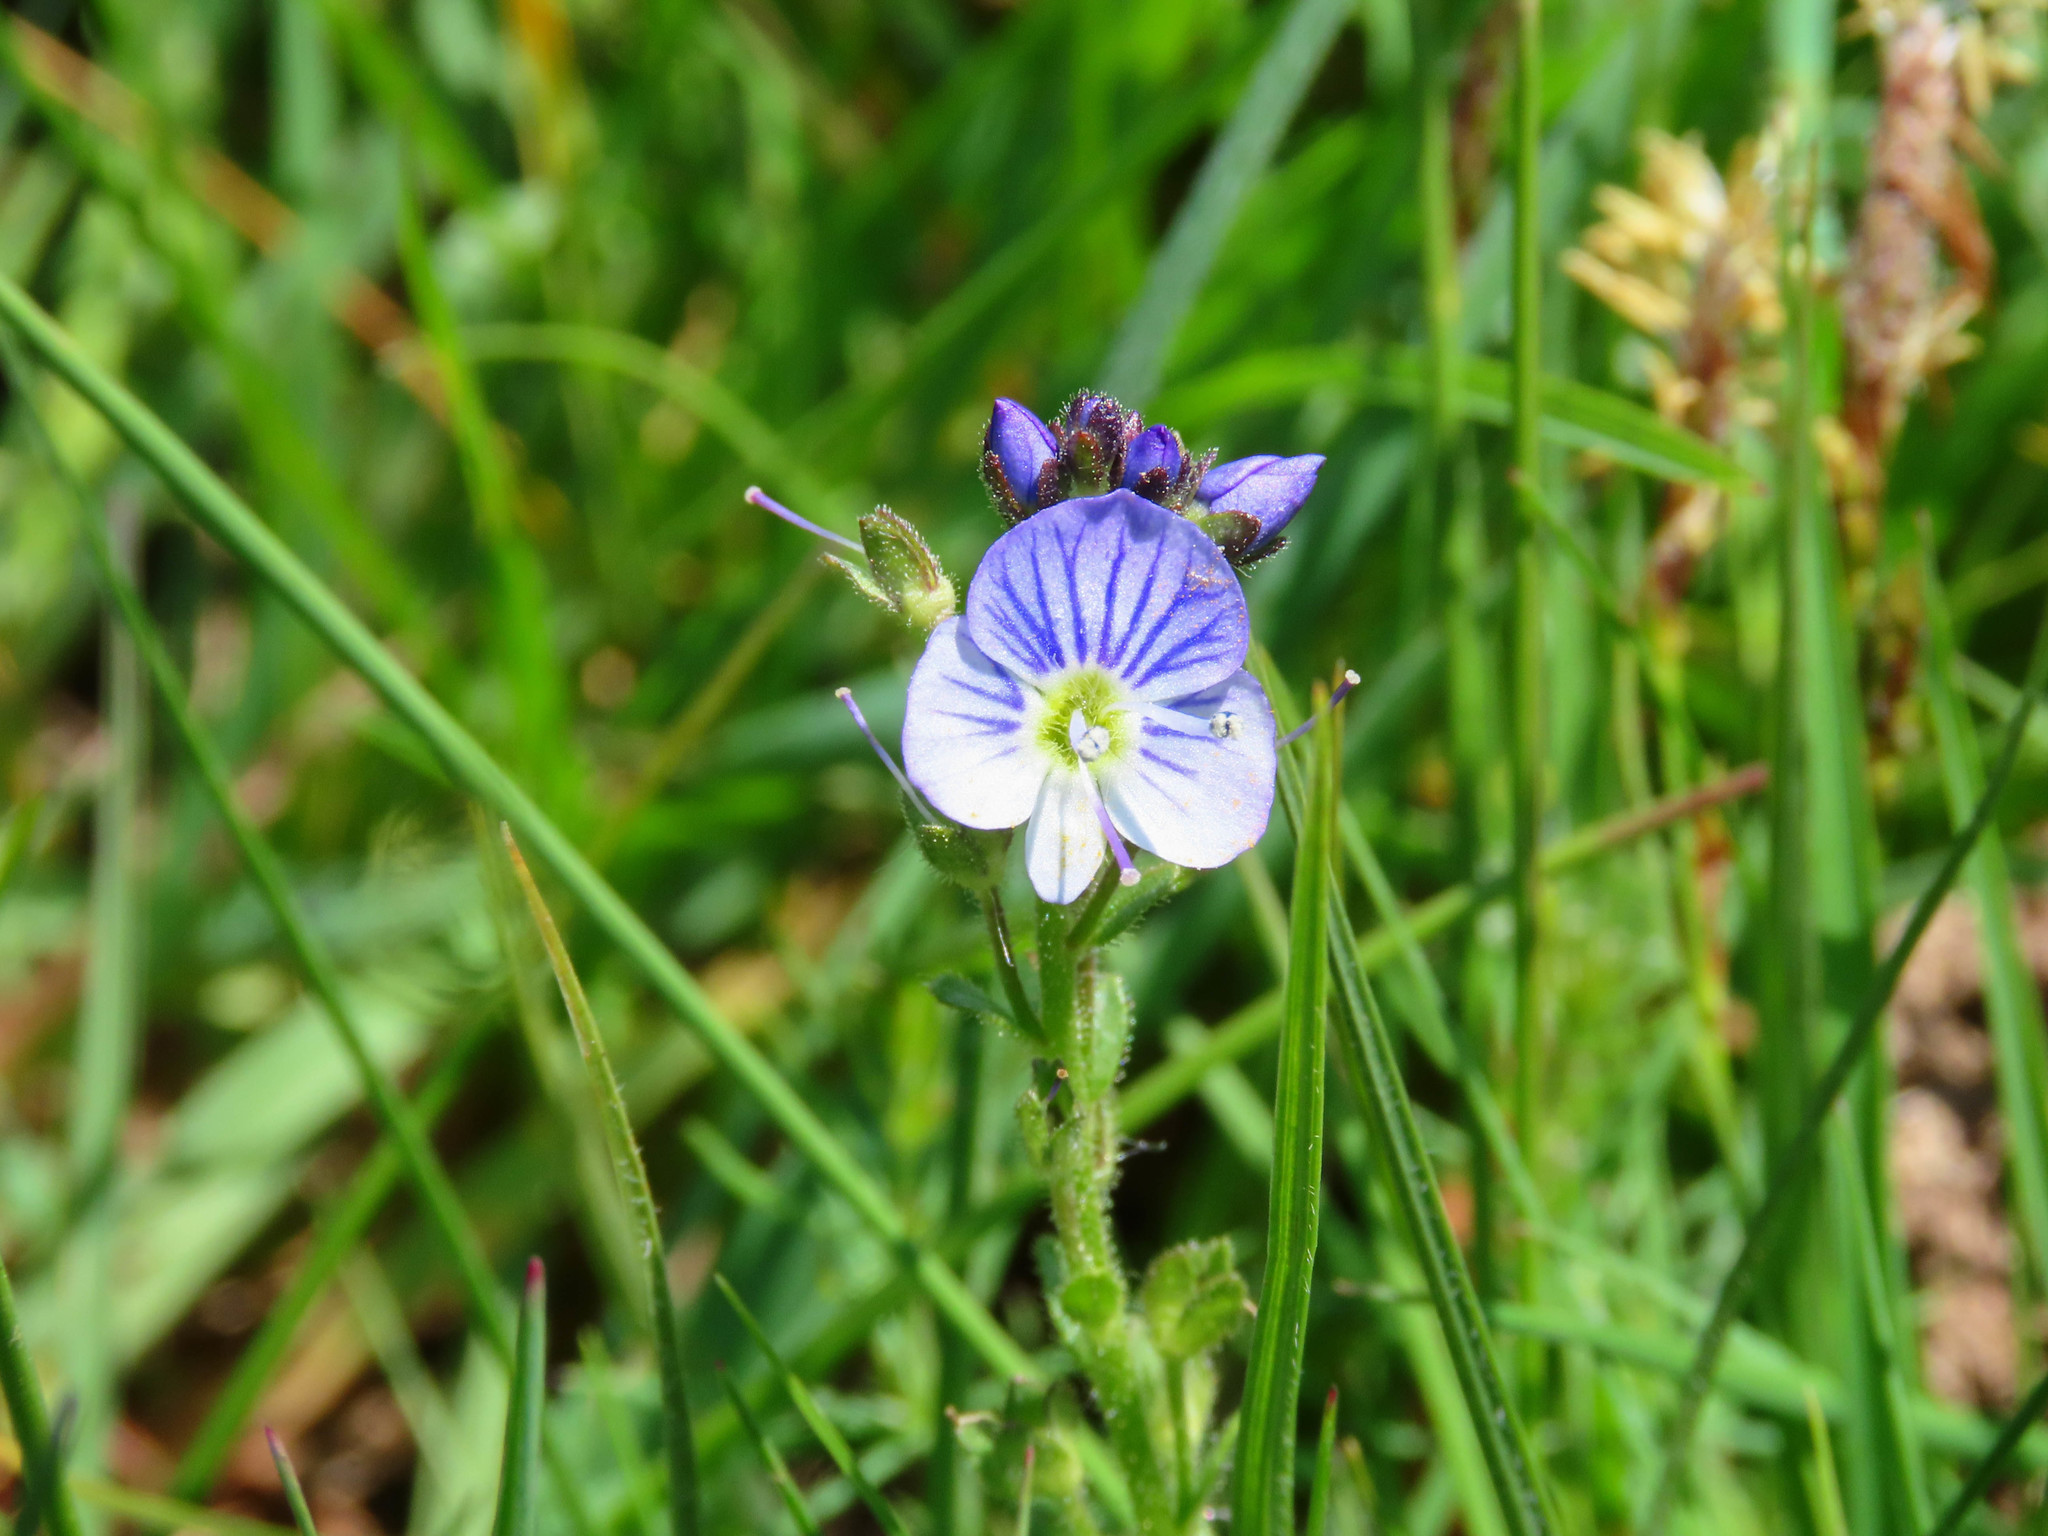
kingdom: Plantae
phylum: Tracheophyta
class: Magnoliopsida
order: Lamiales
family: Plantaginaceae
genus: Veronica
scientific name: Veronica serpyllifolia
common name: Thyme-leaved speedwell
